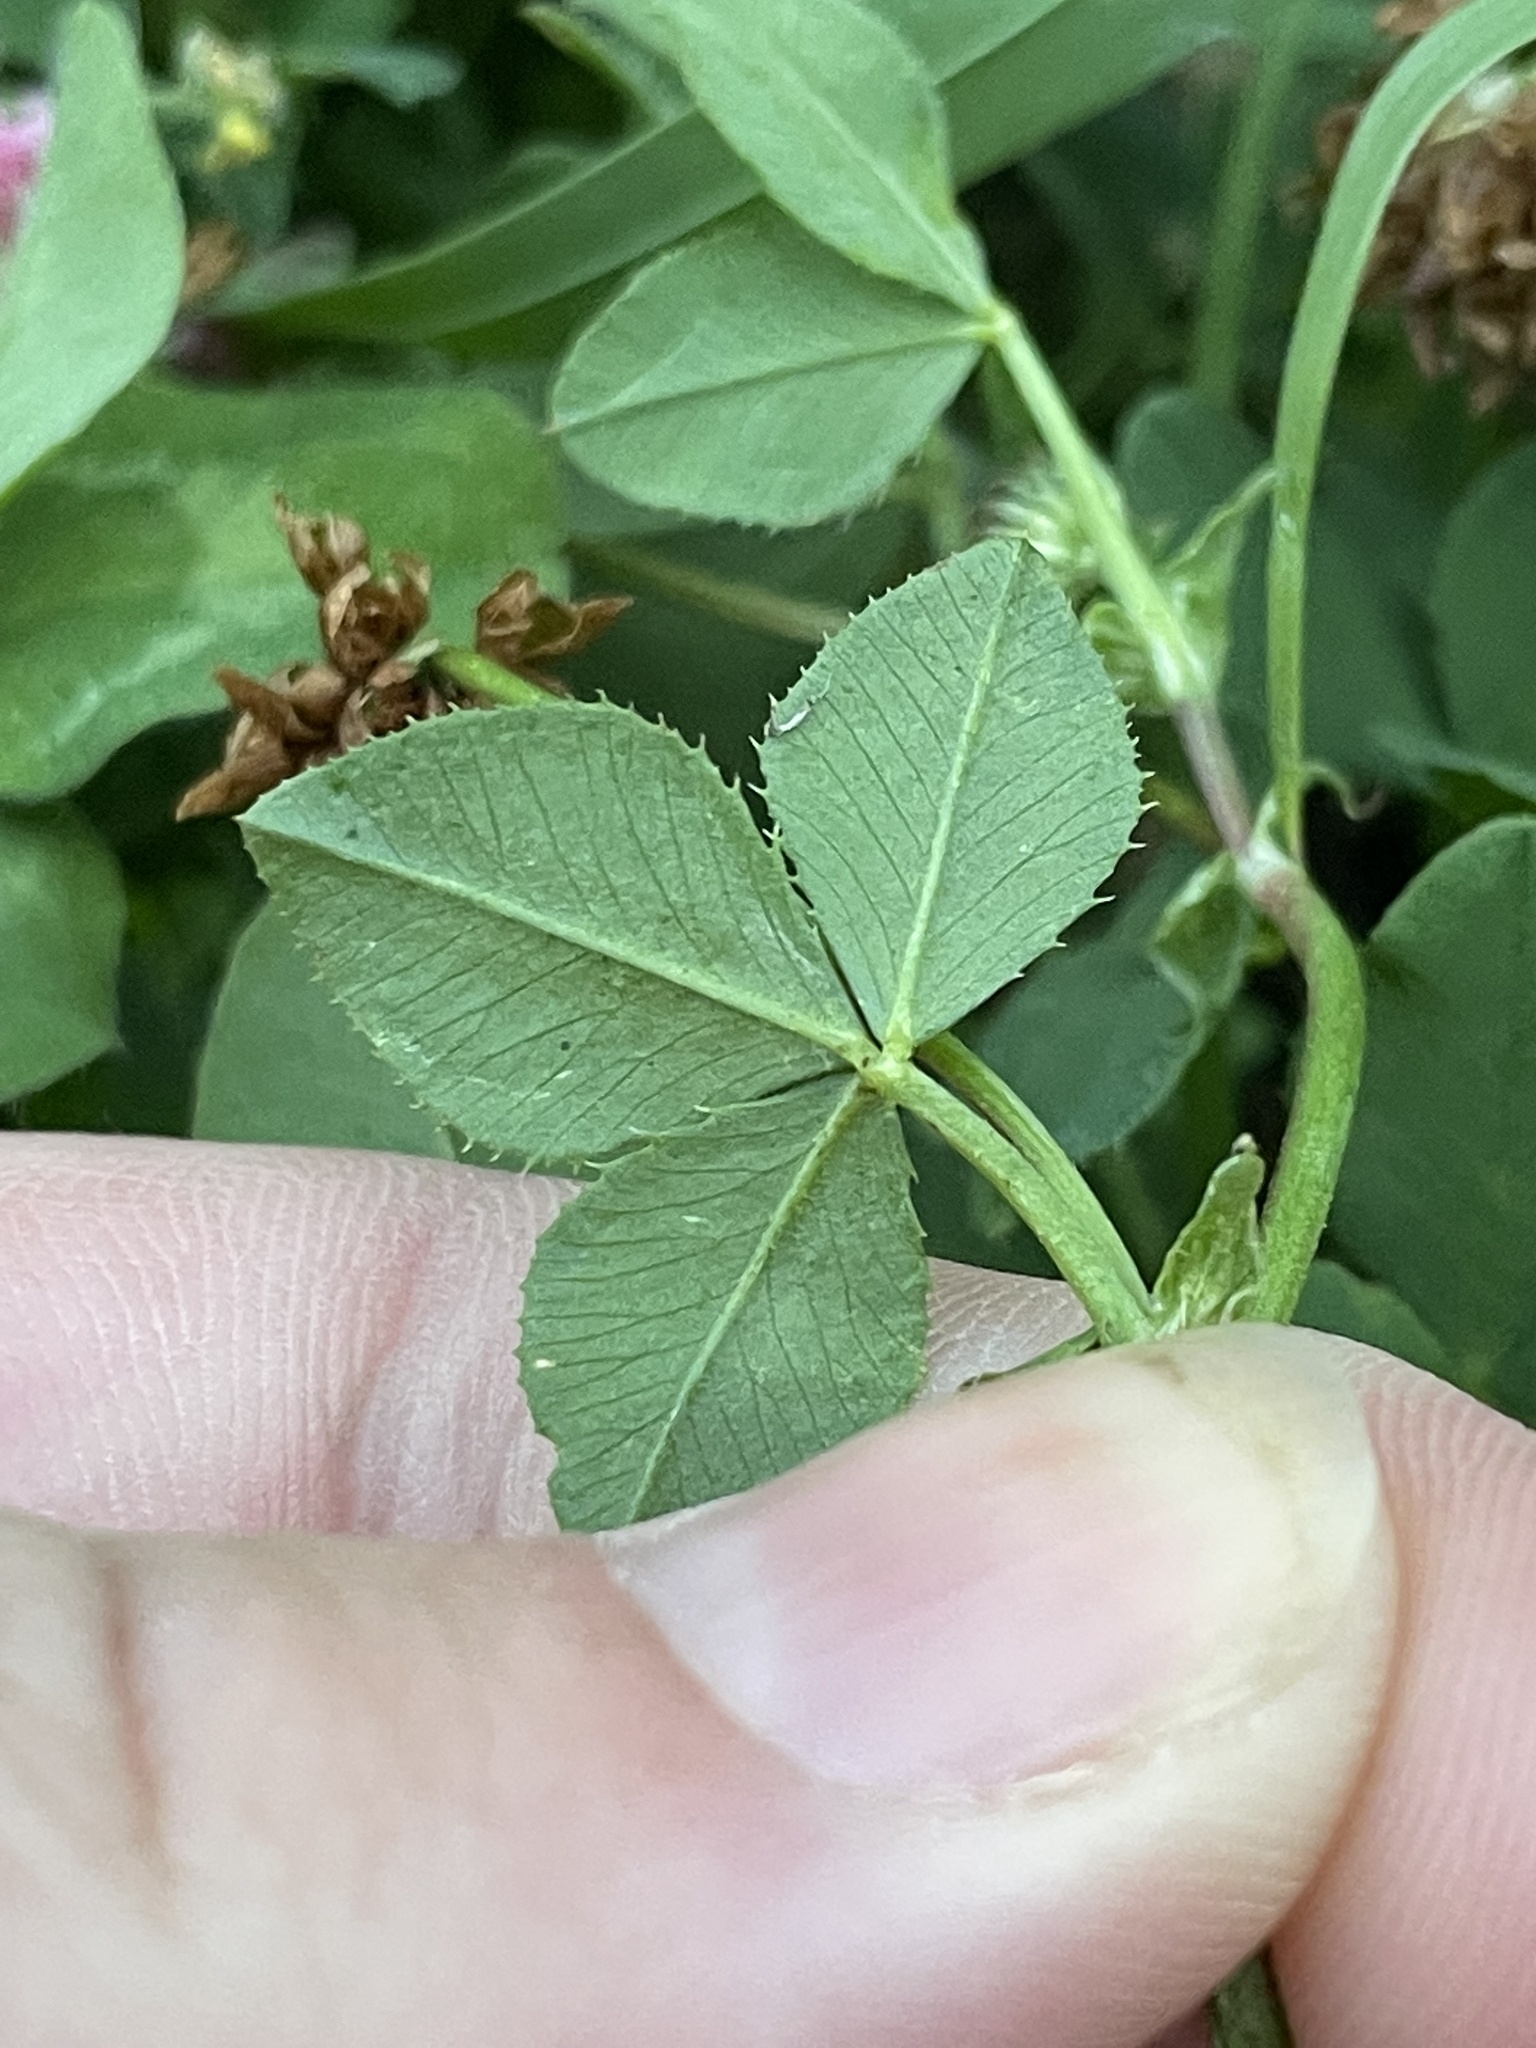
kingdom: Plantae
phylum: Tracheophyta
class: Magnoliopsida
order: Fabales
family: Fabaceae
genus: Trifolium
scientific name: Trifolium hybridum
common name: Alsike clover
